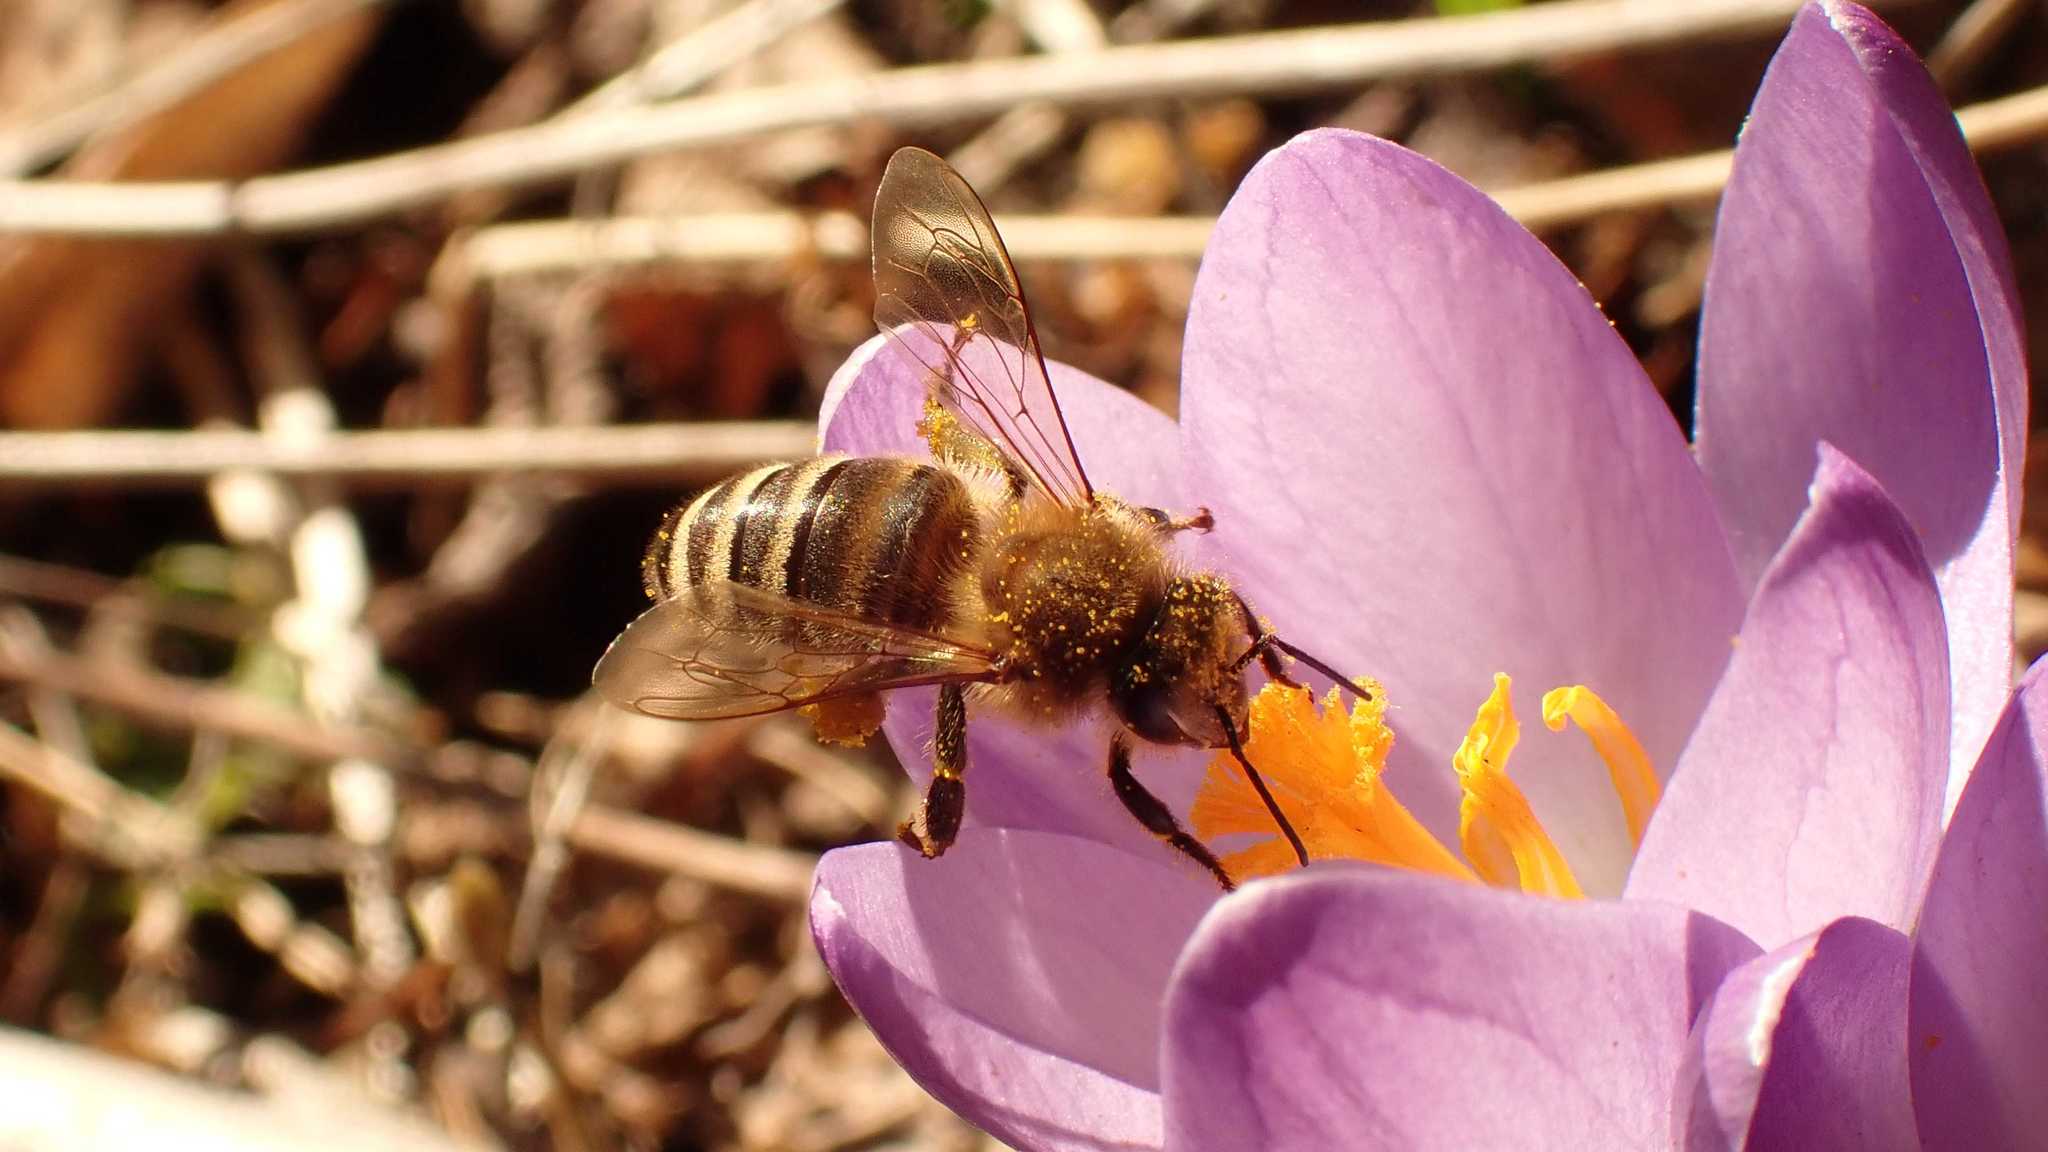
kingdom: Animalia
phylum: Arthropoda
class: Insecta
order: Hymenoptera
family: Apidae
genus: Apis
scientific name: Apis mellifera
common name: Honey bee
